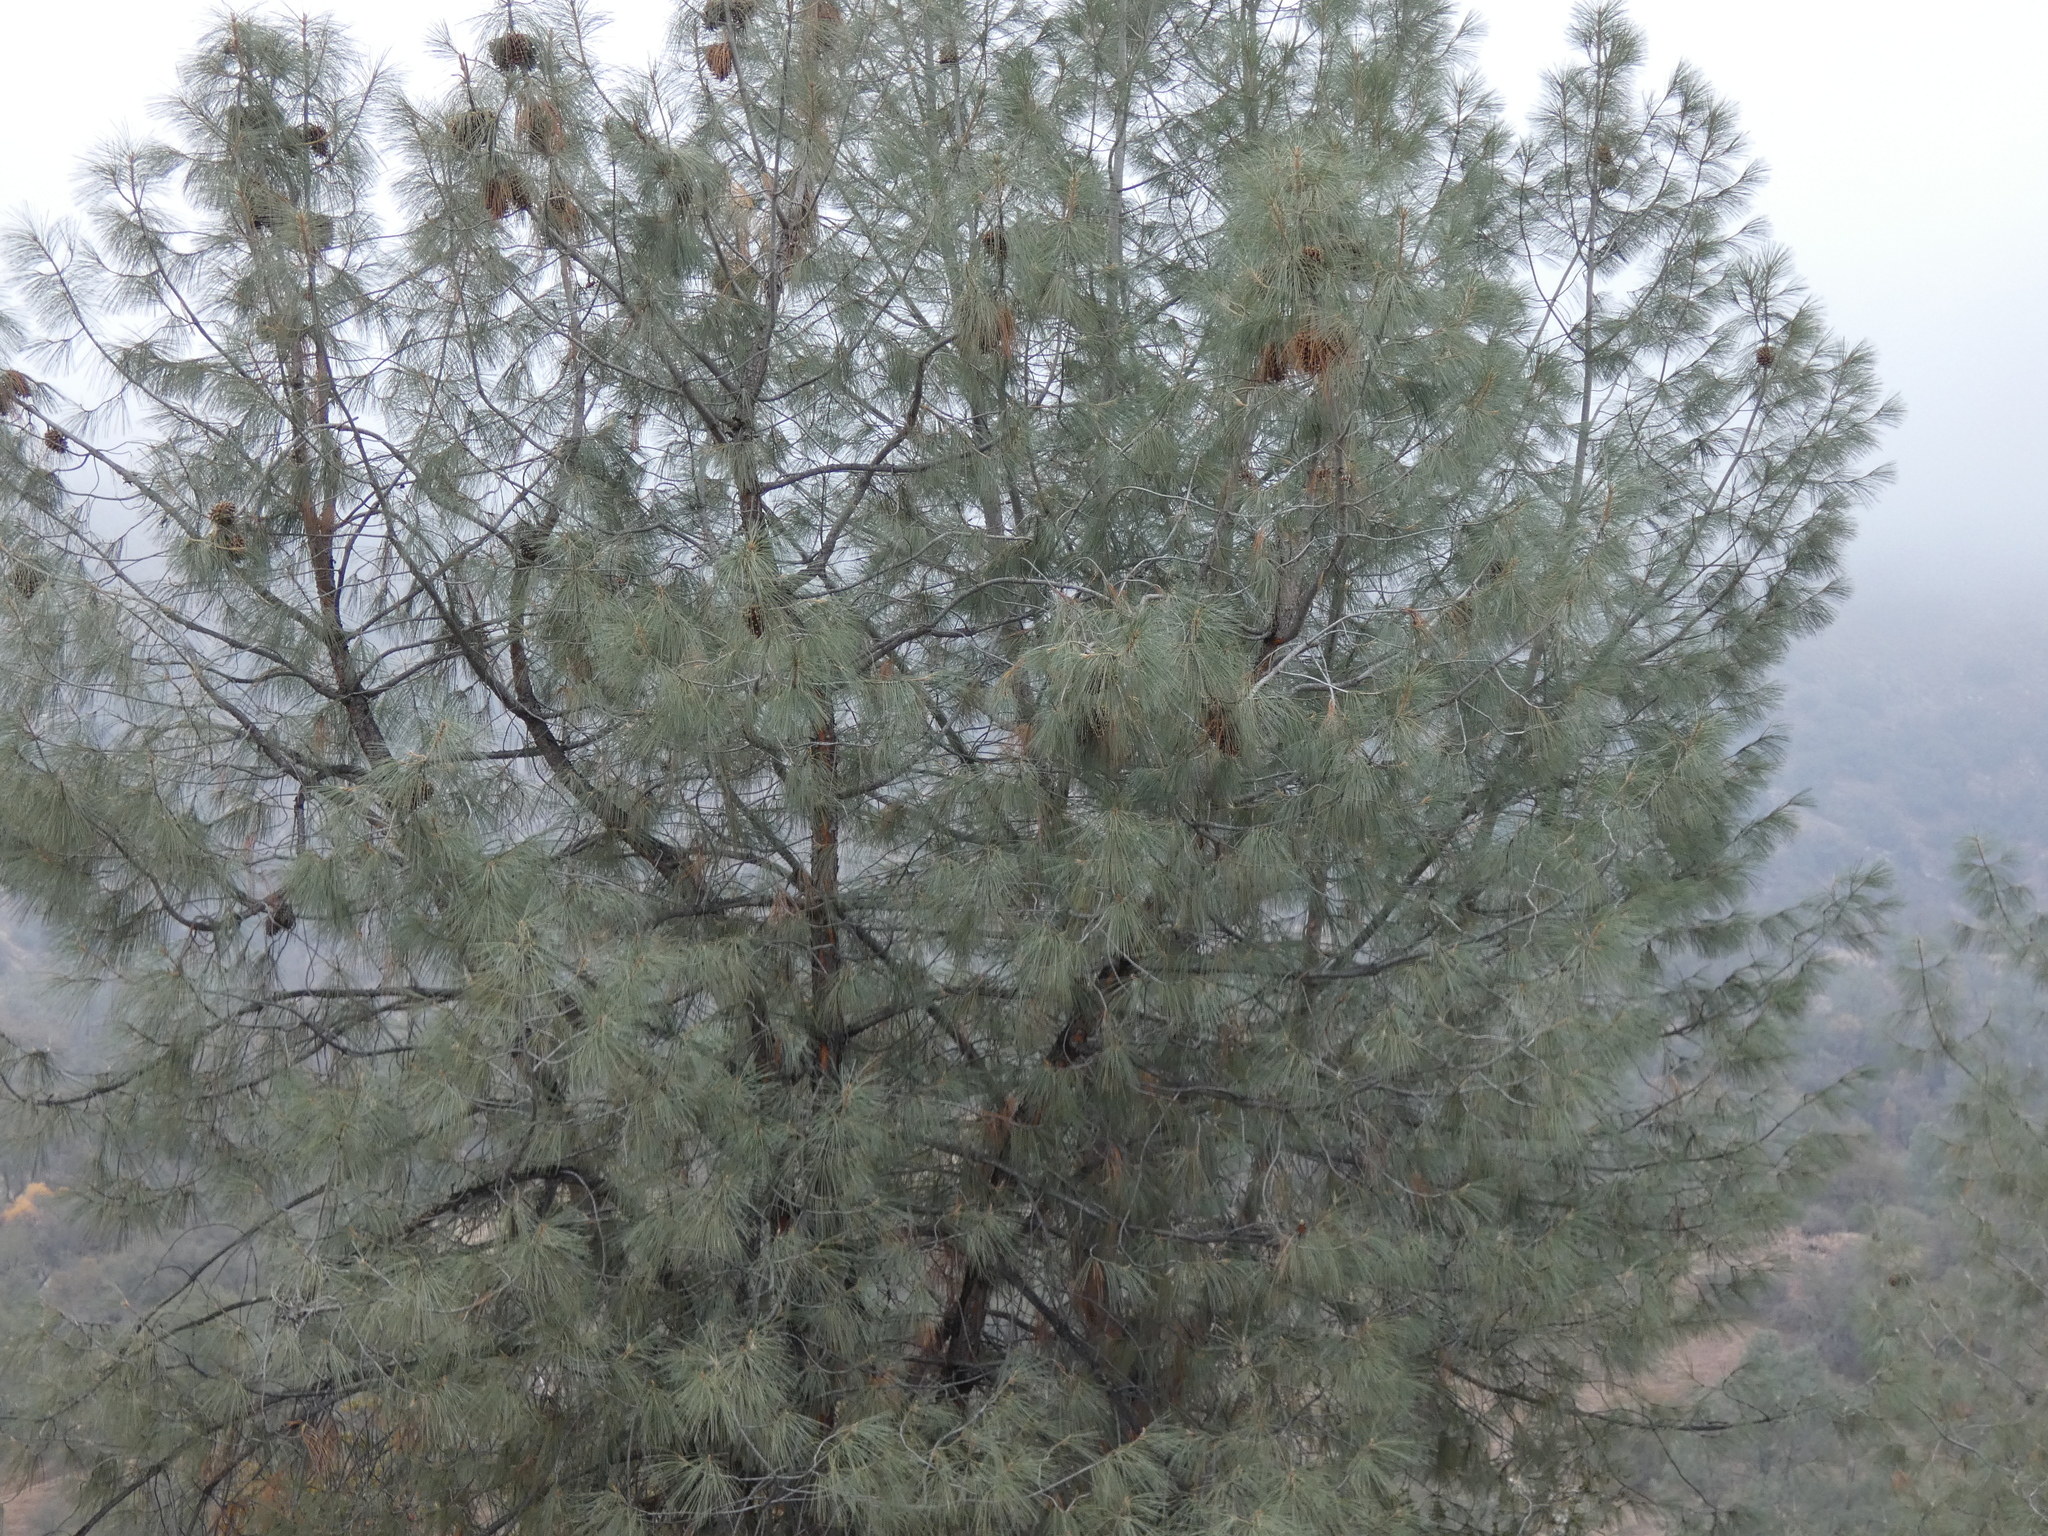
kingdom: Plantae
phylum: Tracheophyta
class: Pinopsida
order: Pinales
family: Pinaceae
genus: Pinus
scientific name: Pinus sabiniana
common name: Bull pine
